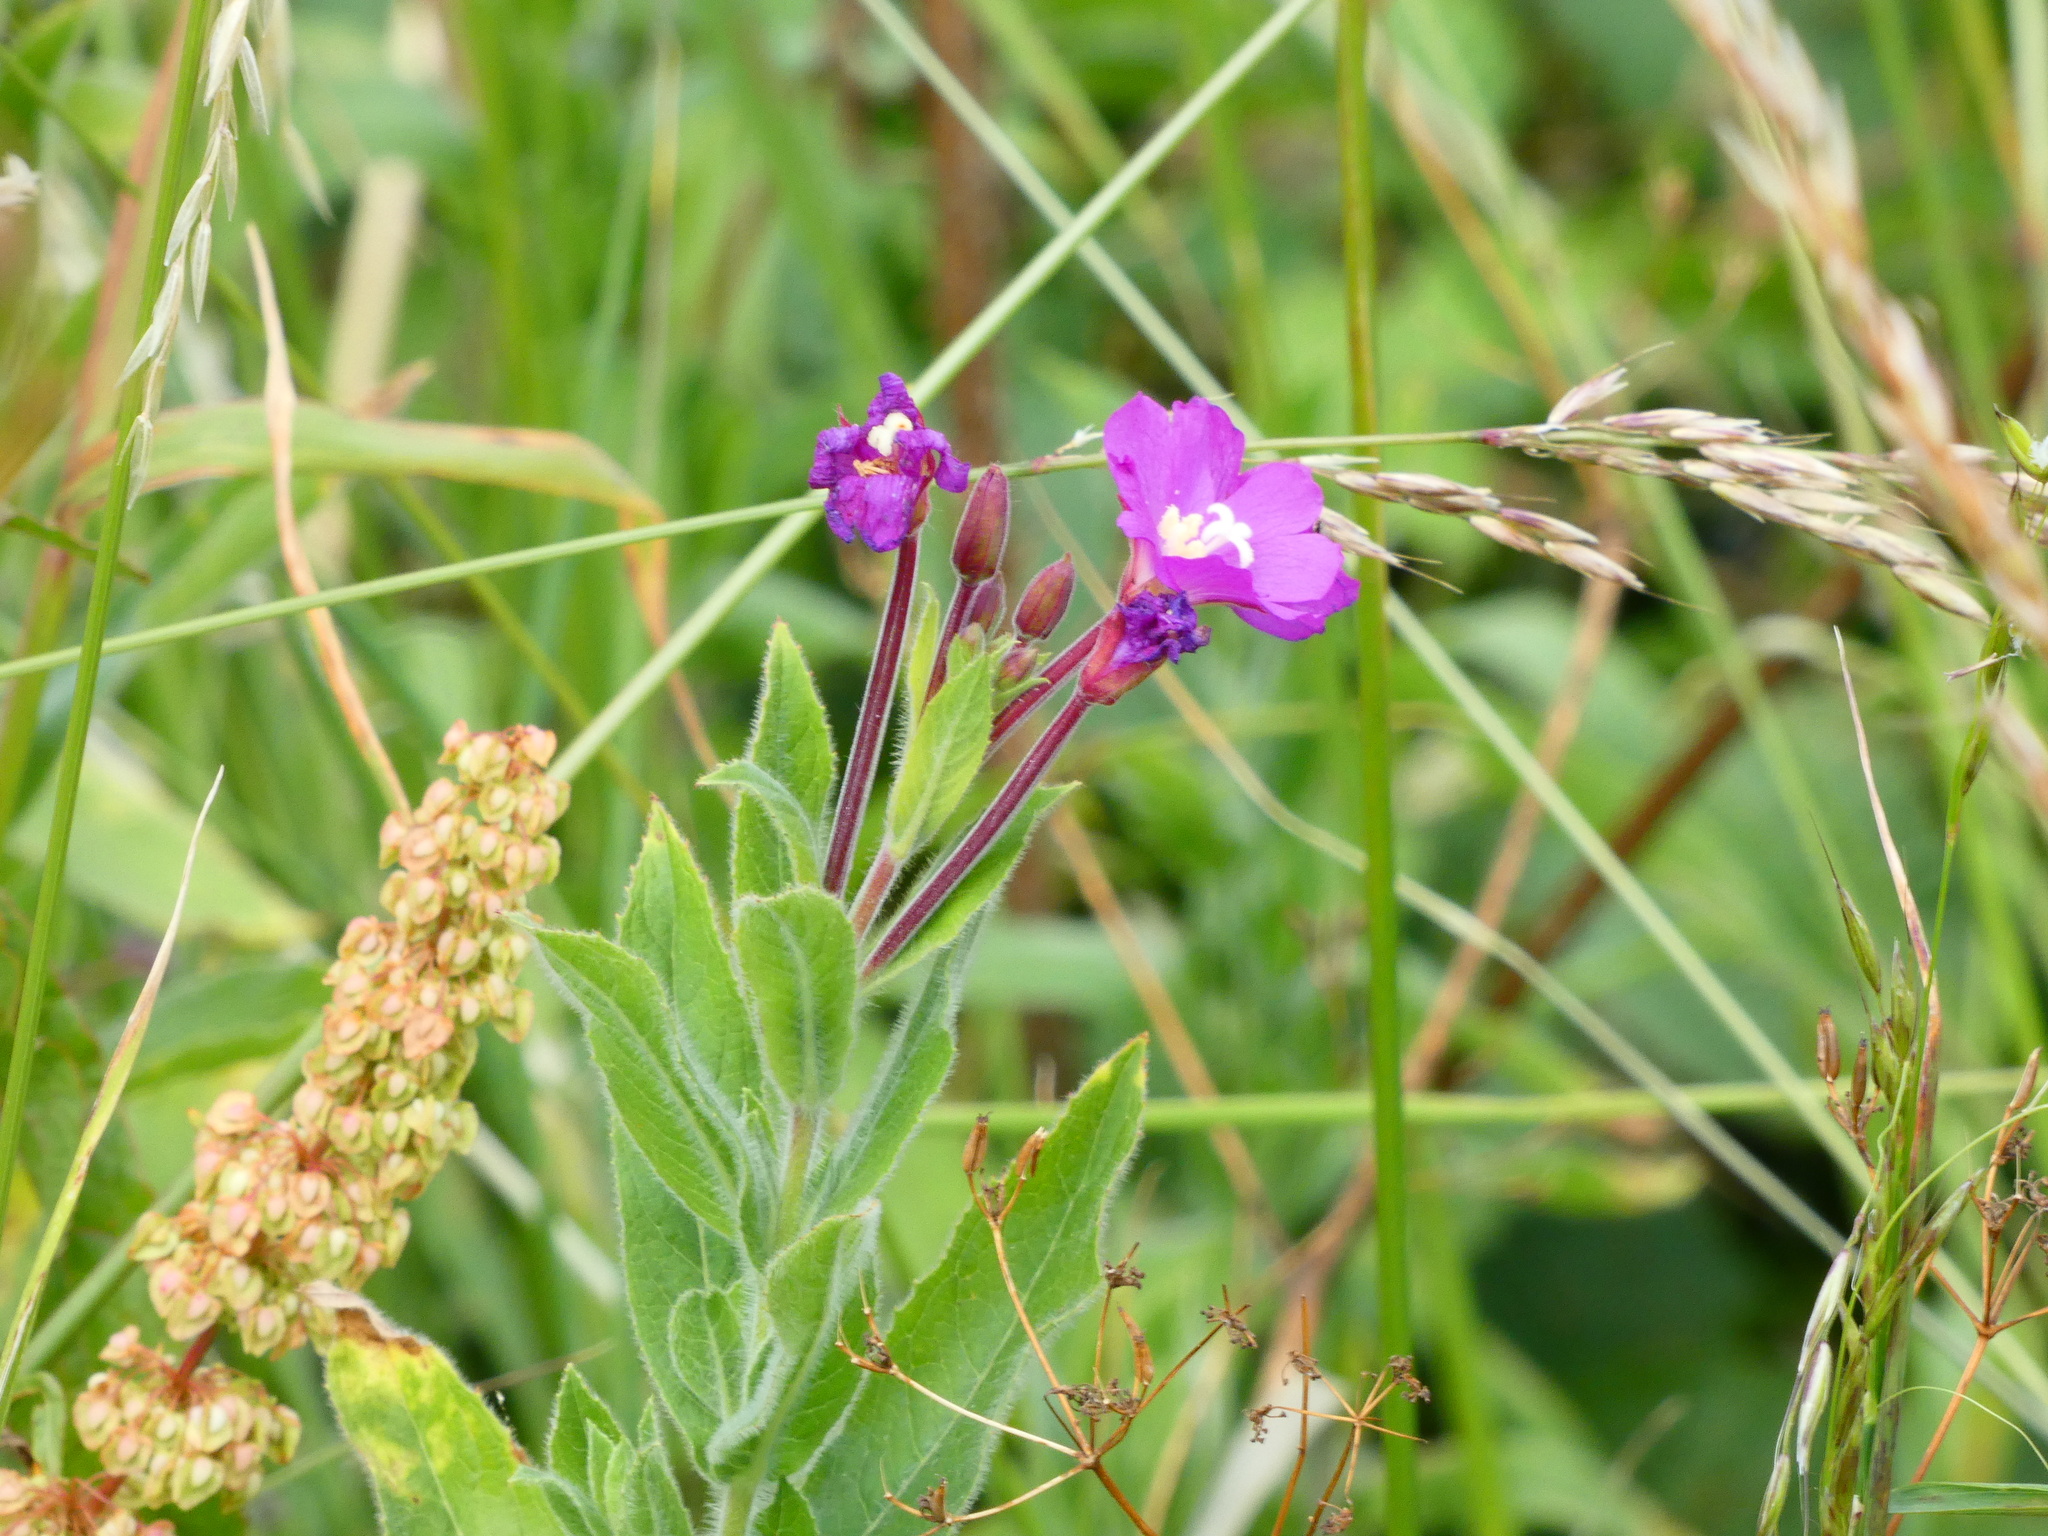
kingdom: Plantae
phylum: Tracheophyta
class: Magnoliopsida
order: Myrtales
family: Onagraceae
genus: Epilobium
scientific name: Epilobium hirsutum
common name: Great willowherb
